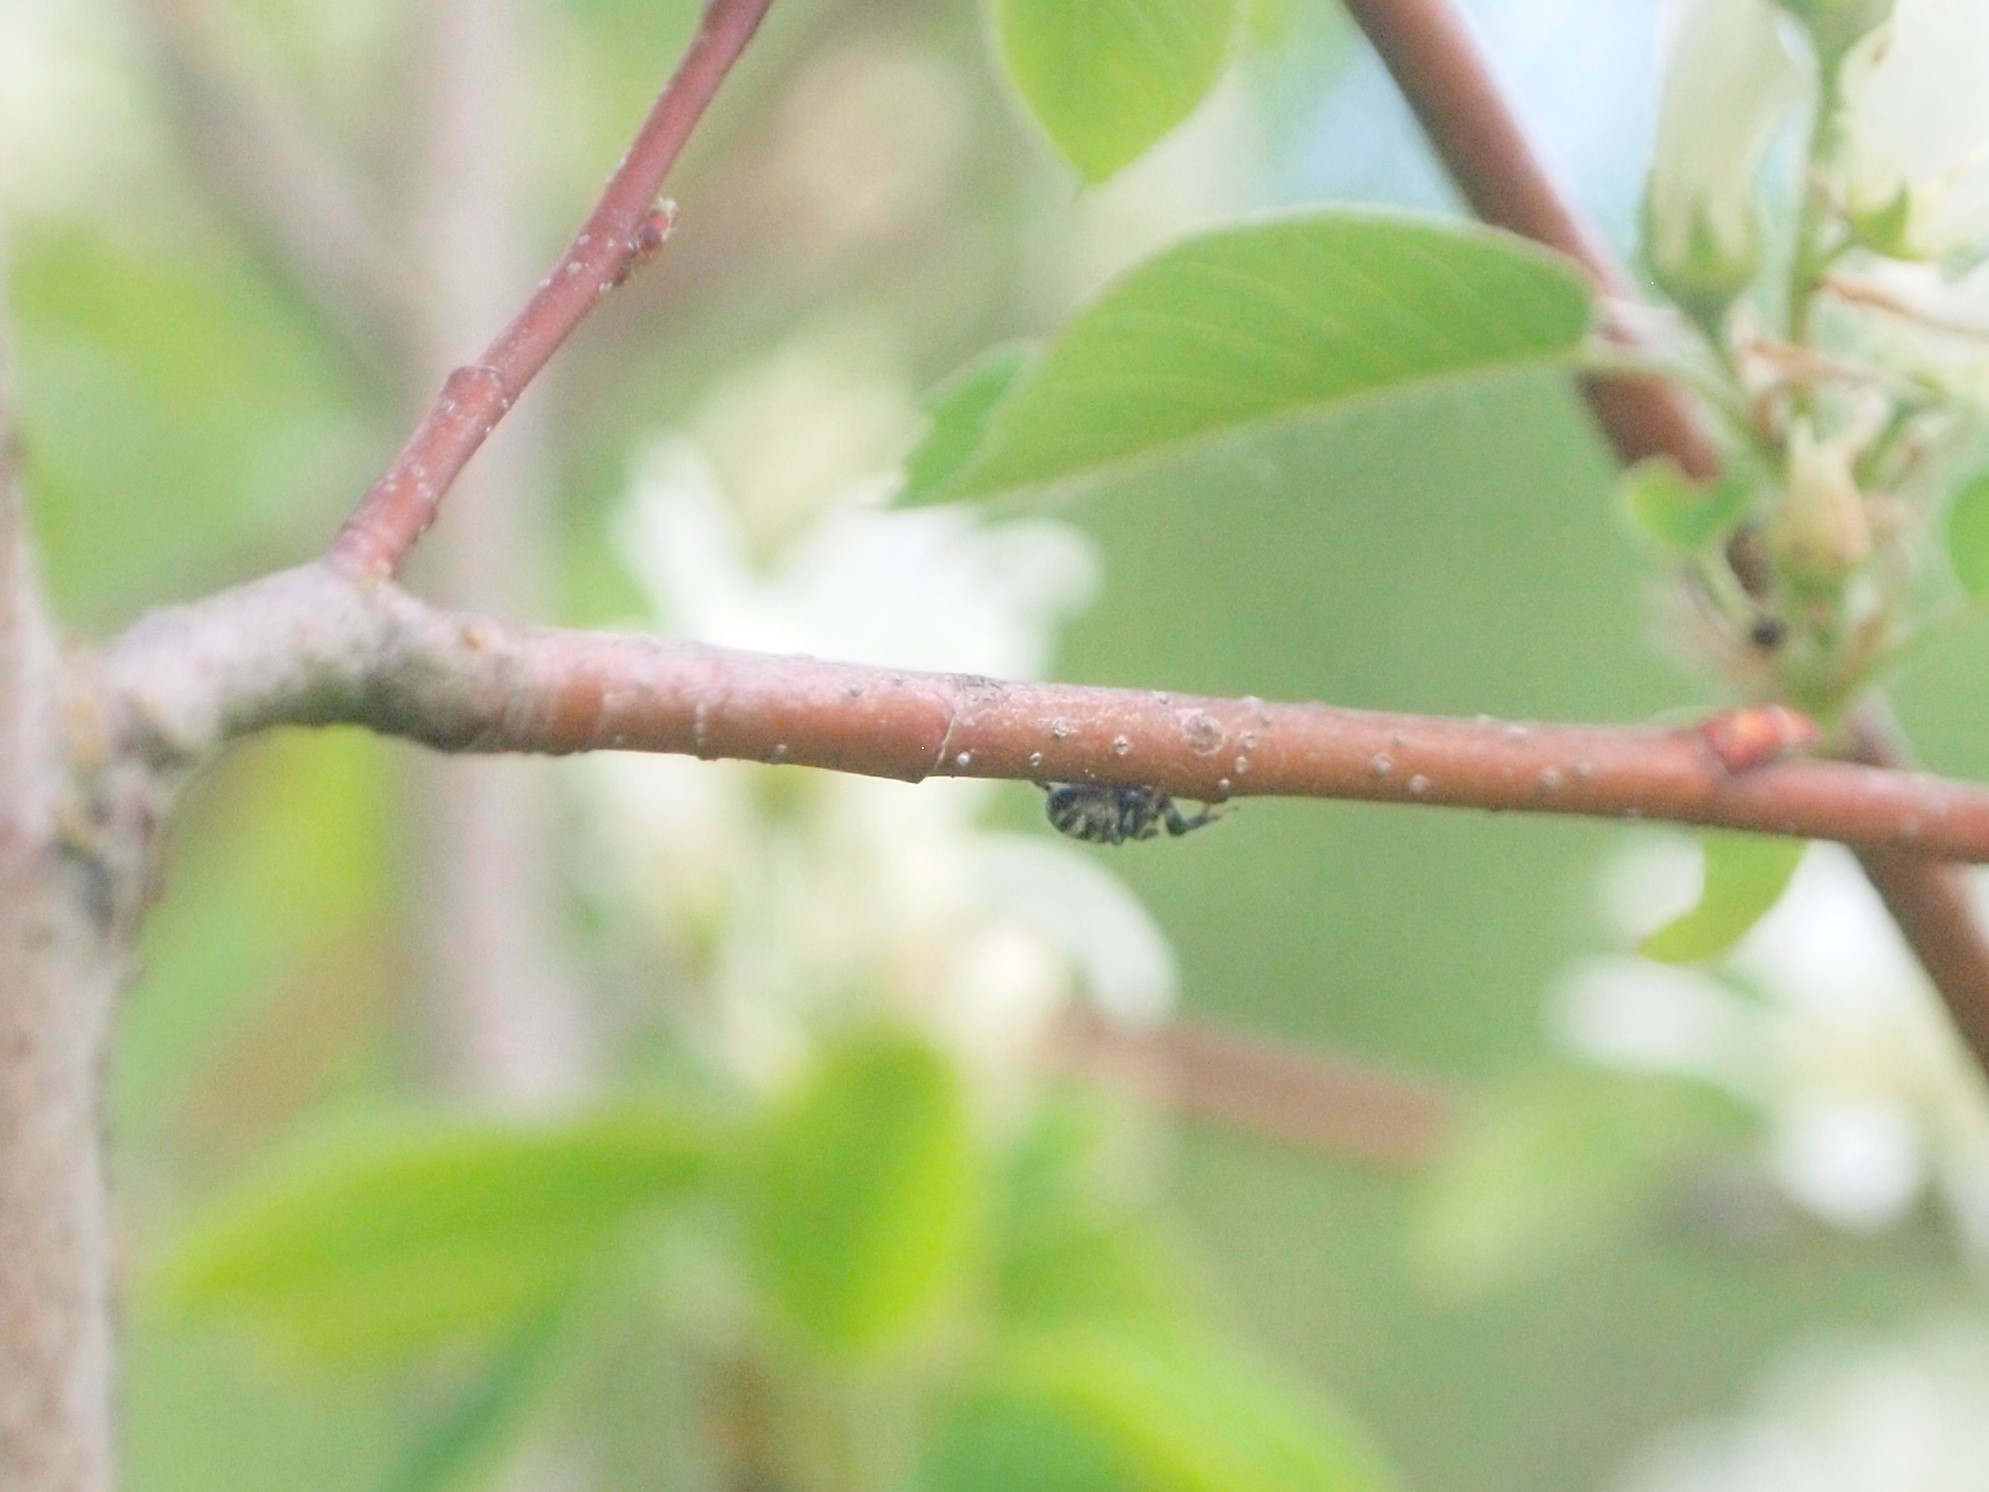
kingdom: Animalia
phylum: Arthropoda
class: Arachnida
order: Araneae
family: Salticidae
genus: Salticus
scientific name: Salticus scenicus
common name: Zebra jumper
